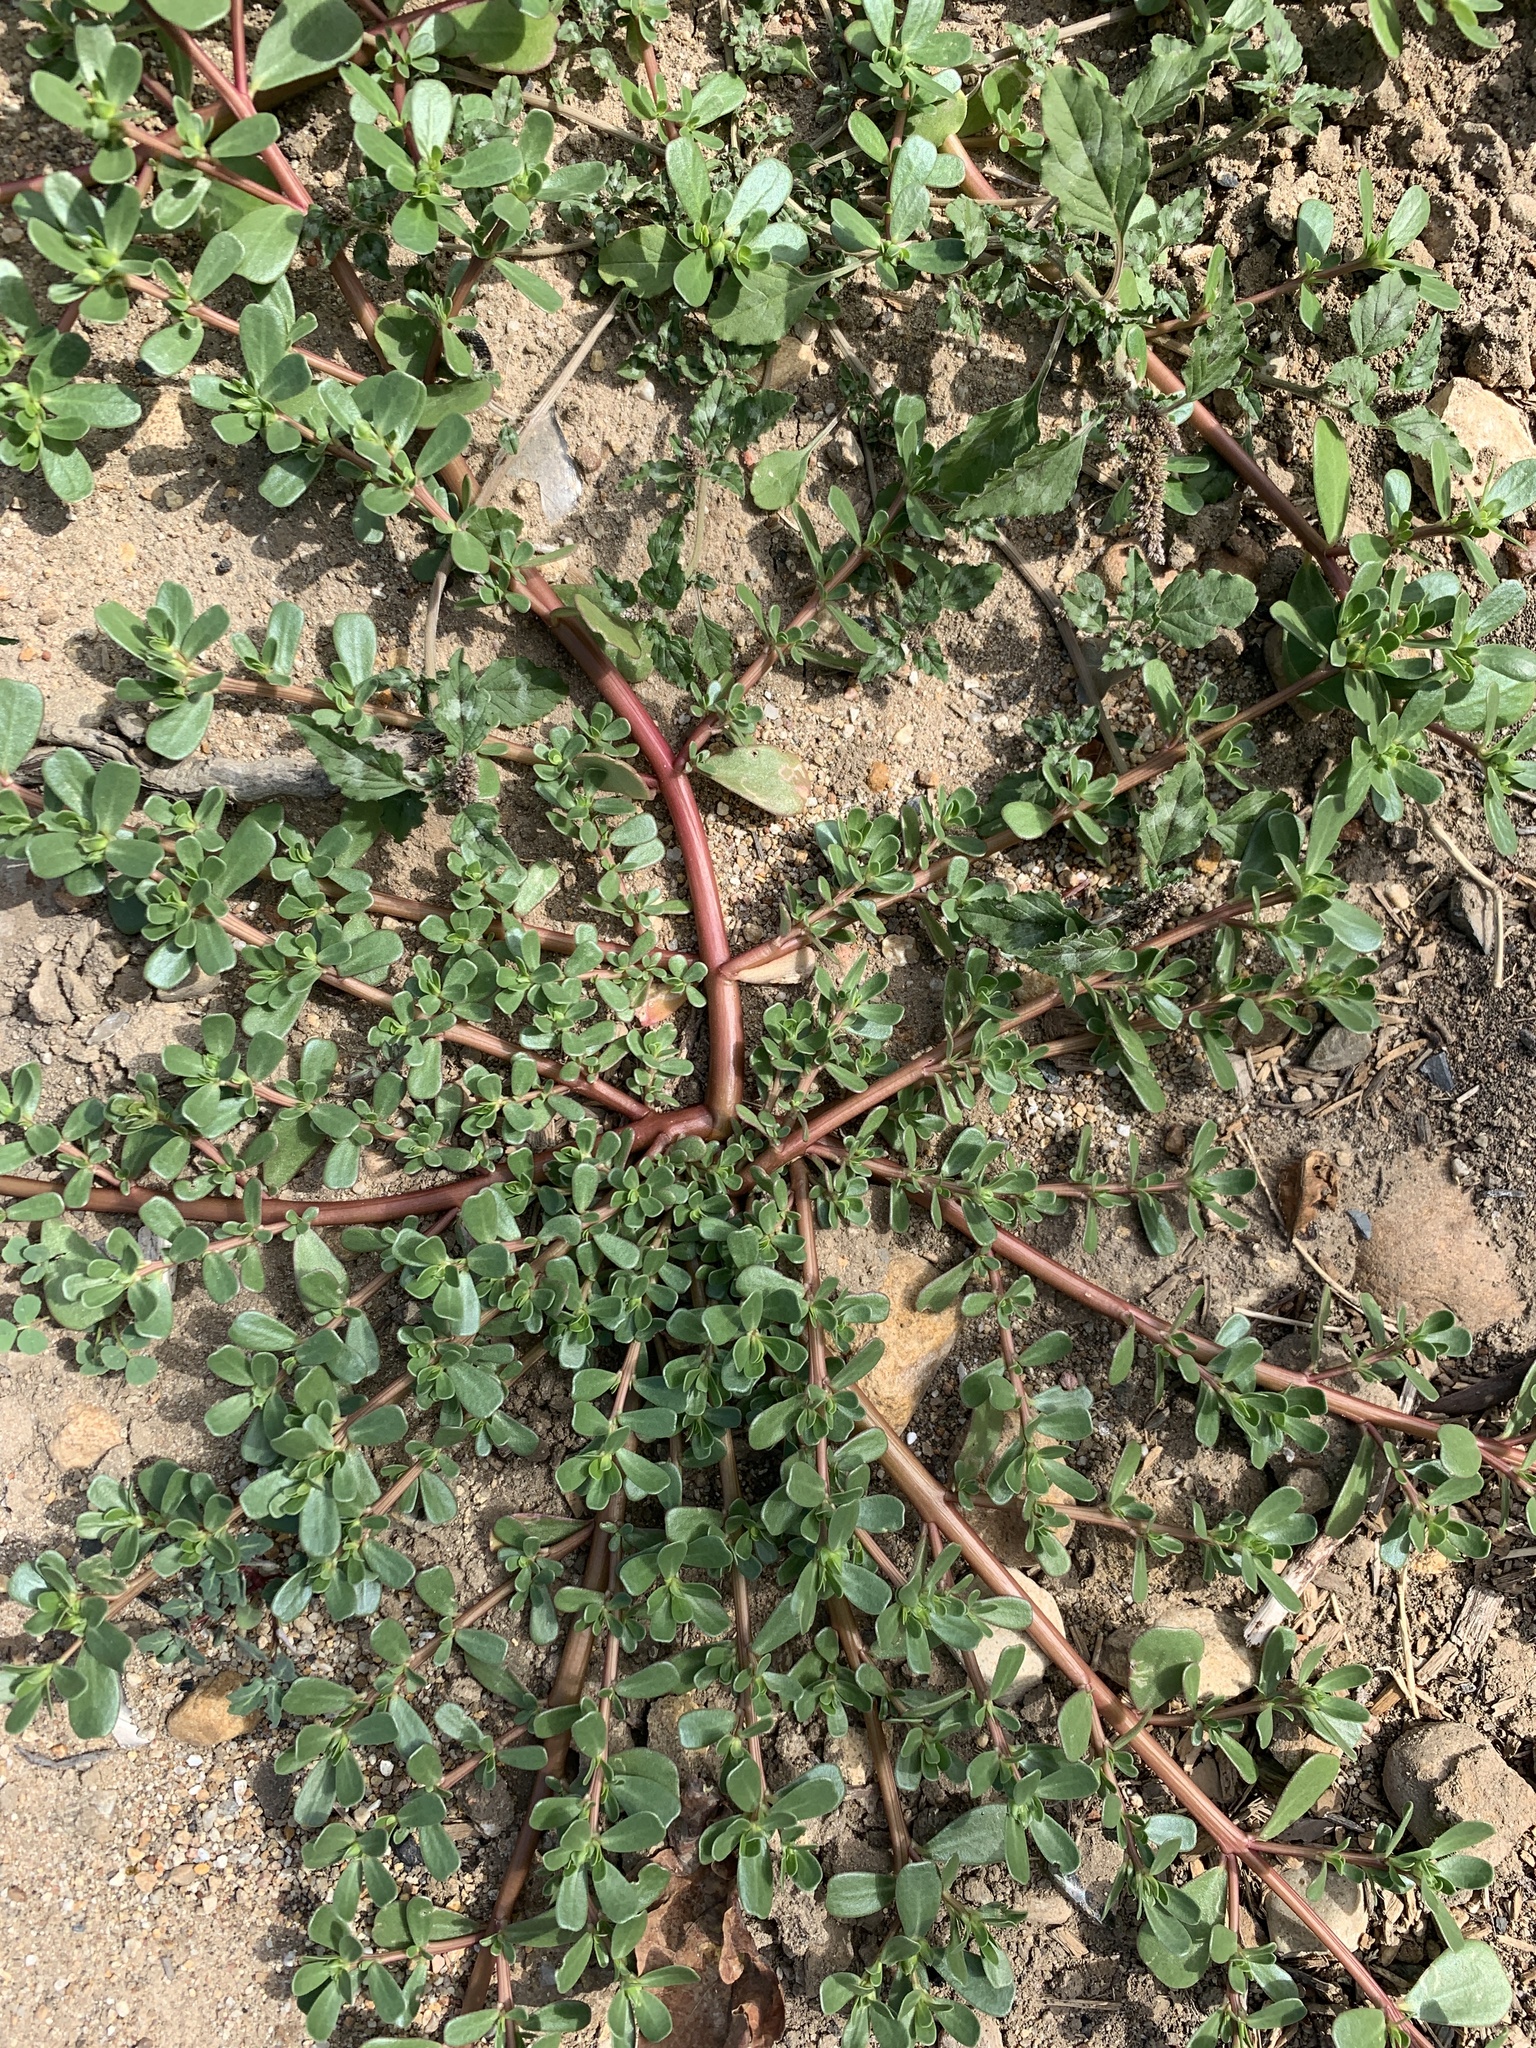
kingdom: Plantae
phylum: Tracheophyta
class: Magnoliopsida
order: Caryophyllales
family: Portulacaceae
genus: Portulaca
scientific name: Portulaca oleracea
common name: Common purslane
